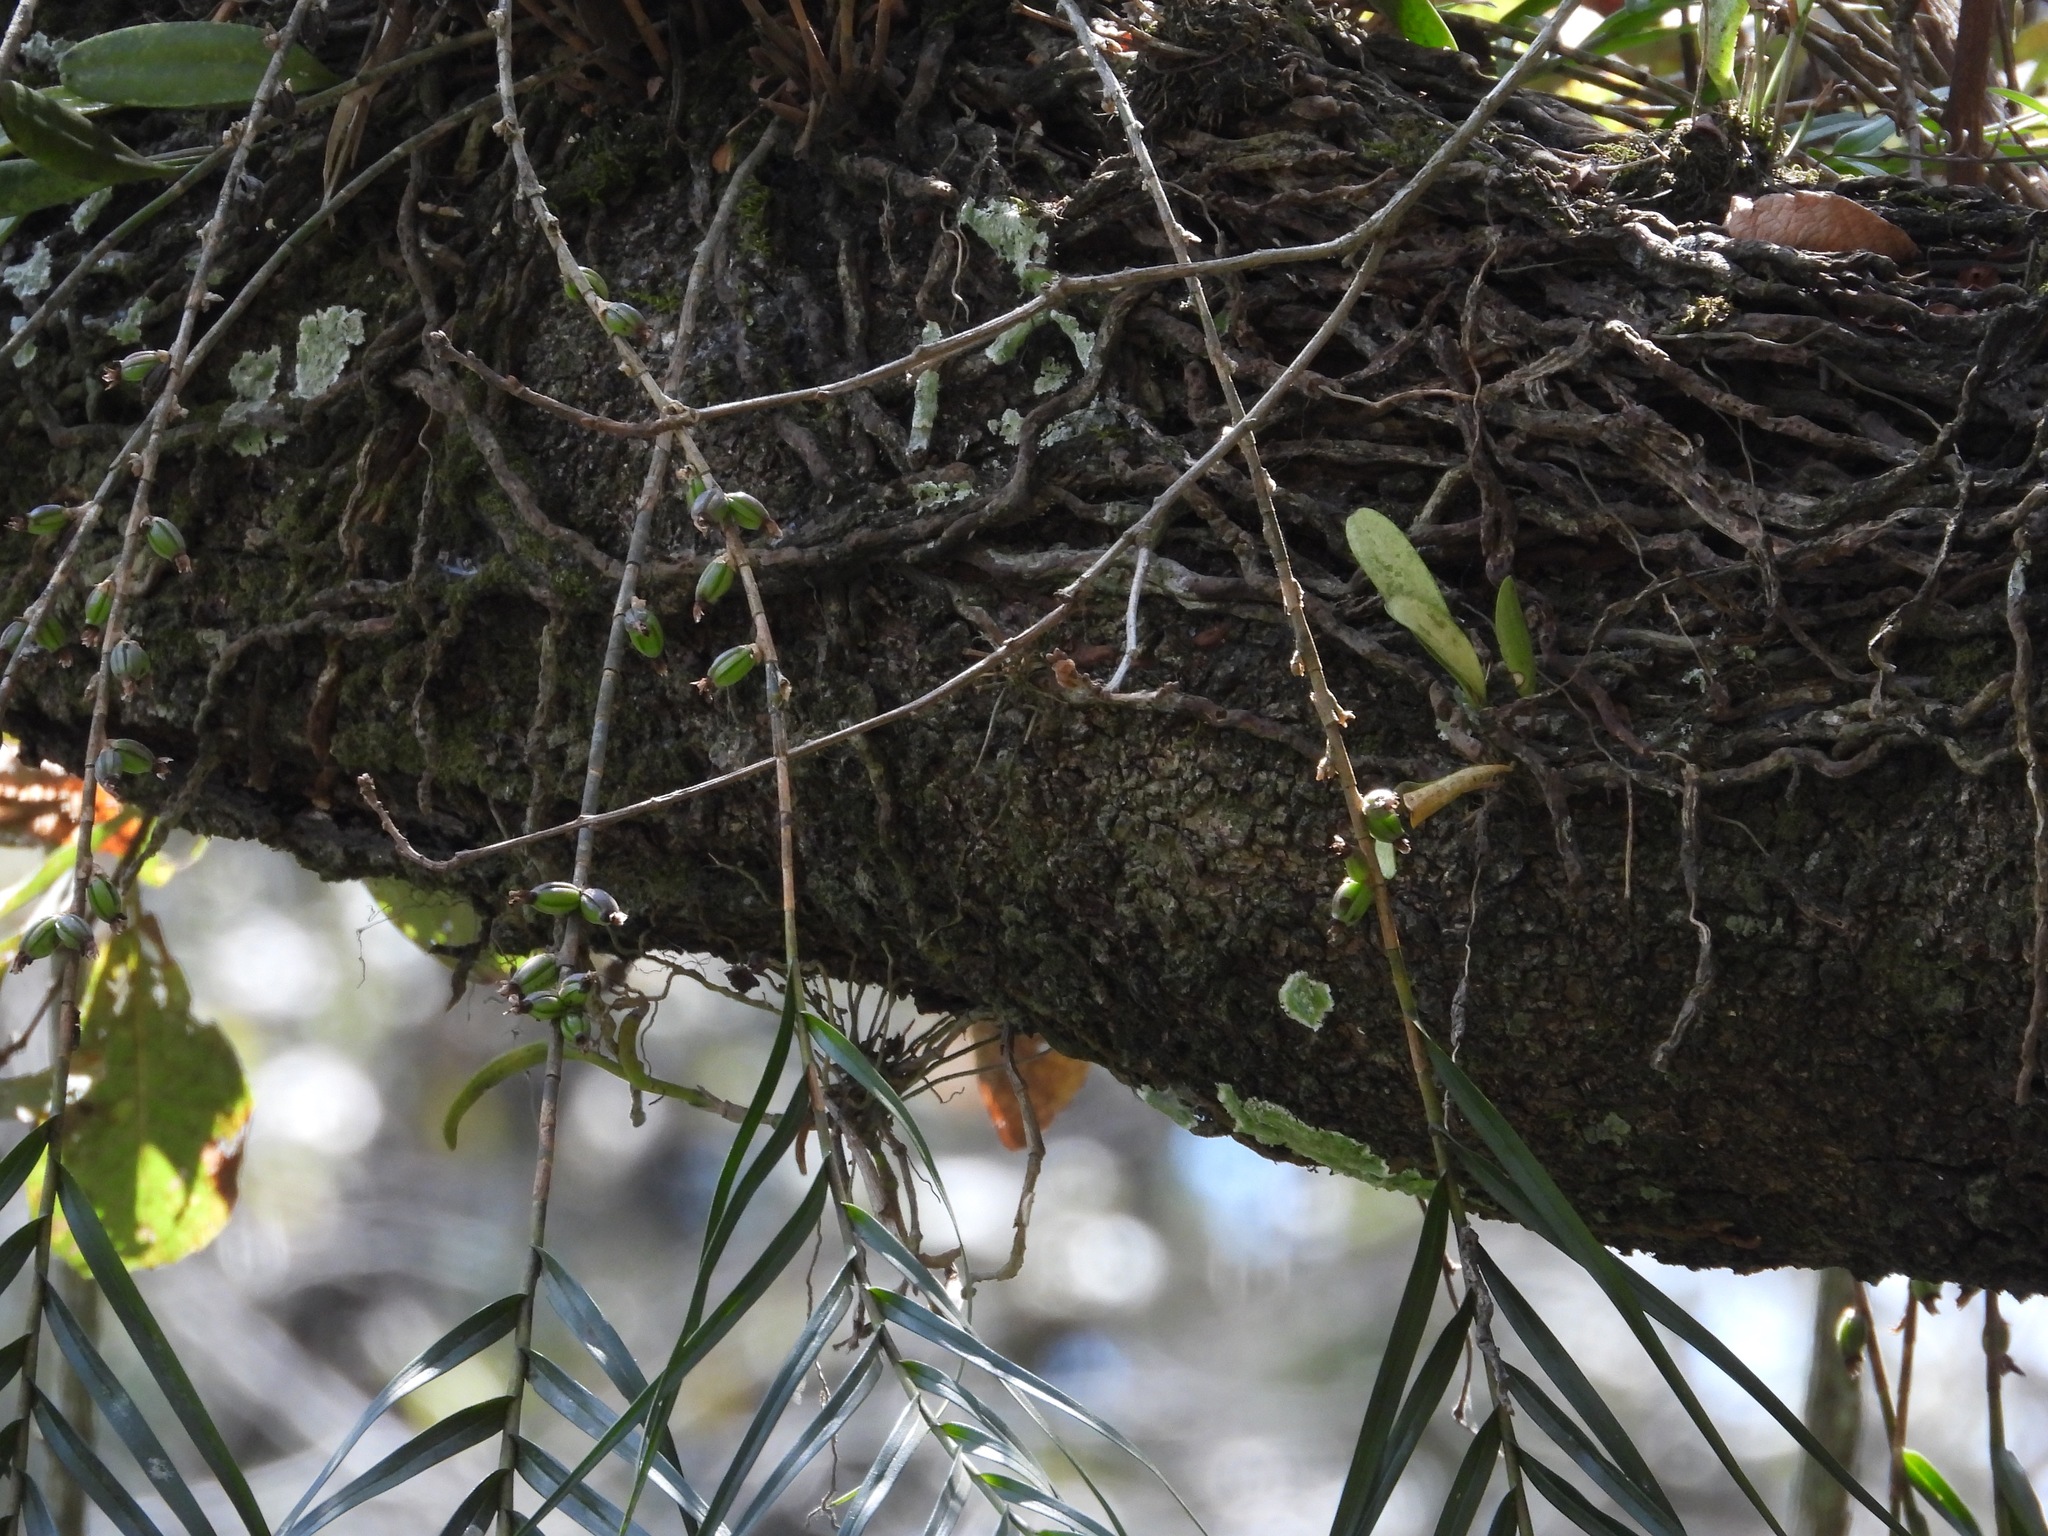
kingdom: Plantae
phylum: Tracheophyta
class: Liliopsida
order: Asparagales
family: Orchidaceae
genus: Nemaconia
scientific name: Nemaconia striata
